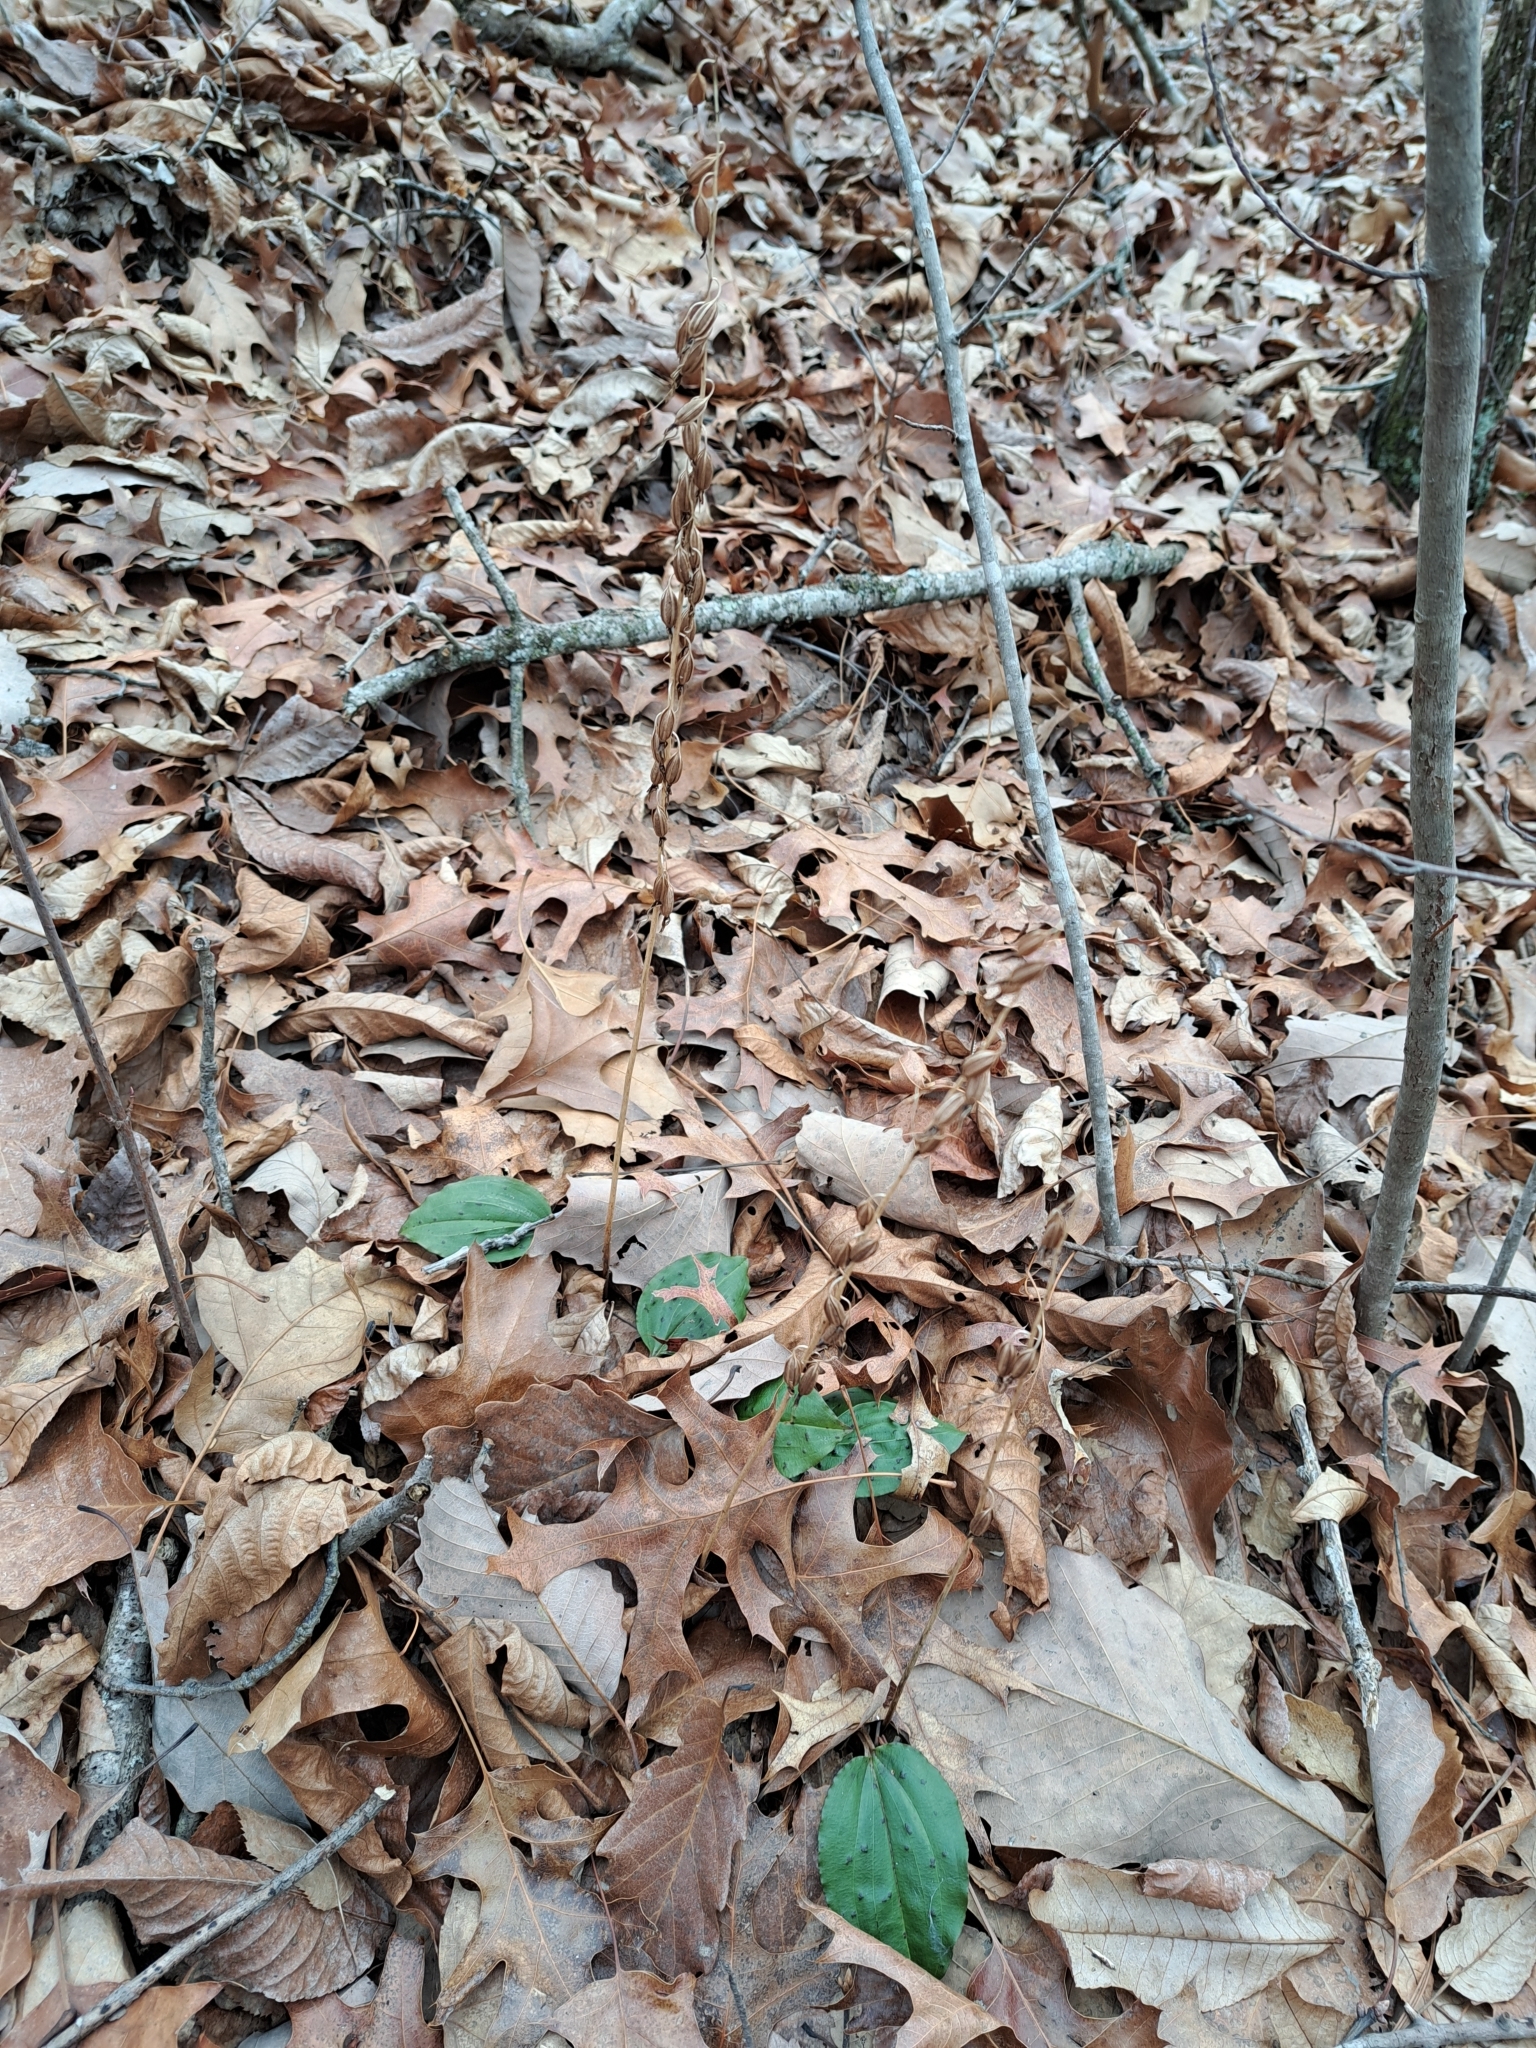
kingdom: Plantae
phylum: Tracheophyta
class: Liliopsida
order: Asparagales
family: Orchidaceae
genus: Tipularia
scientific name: Tipularia discolor
